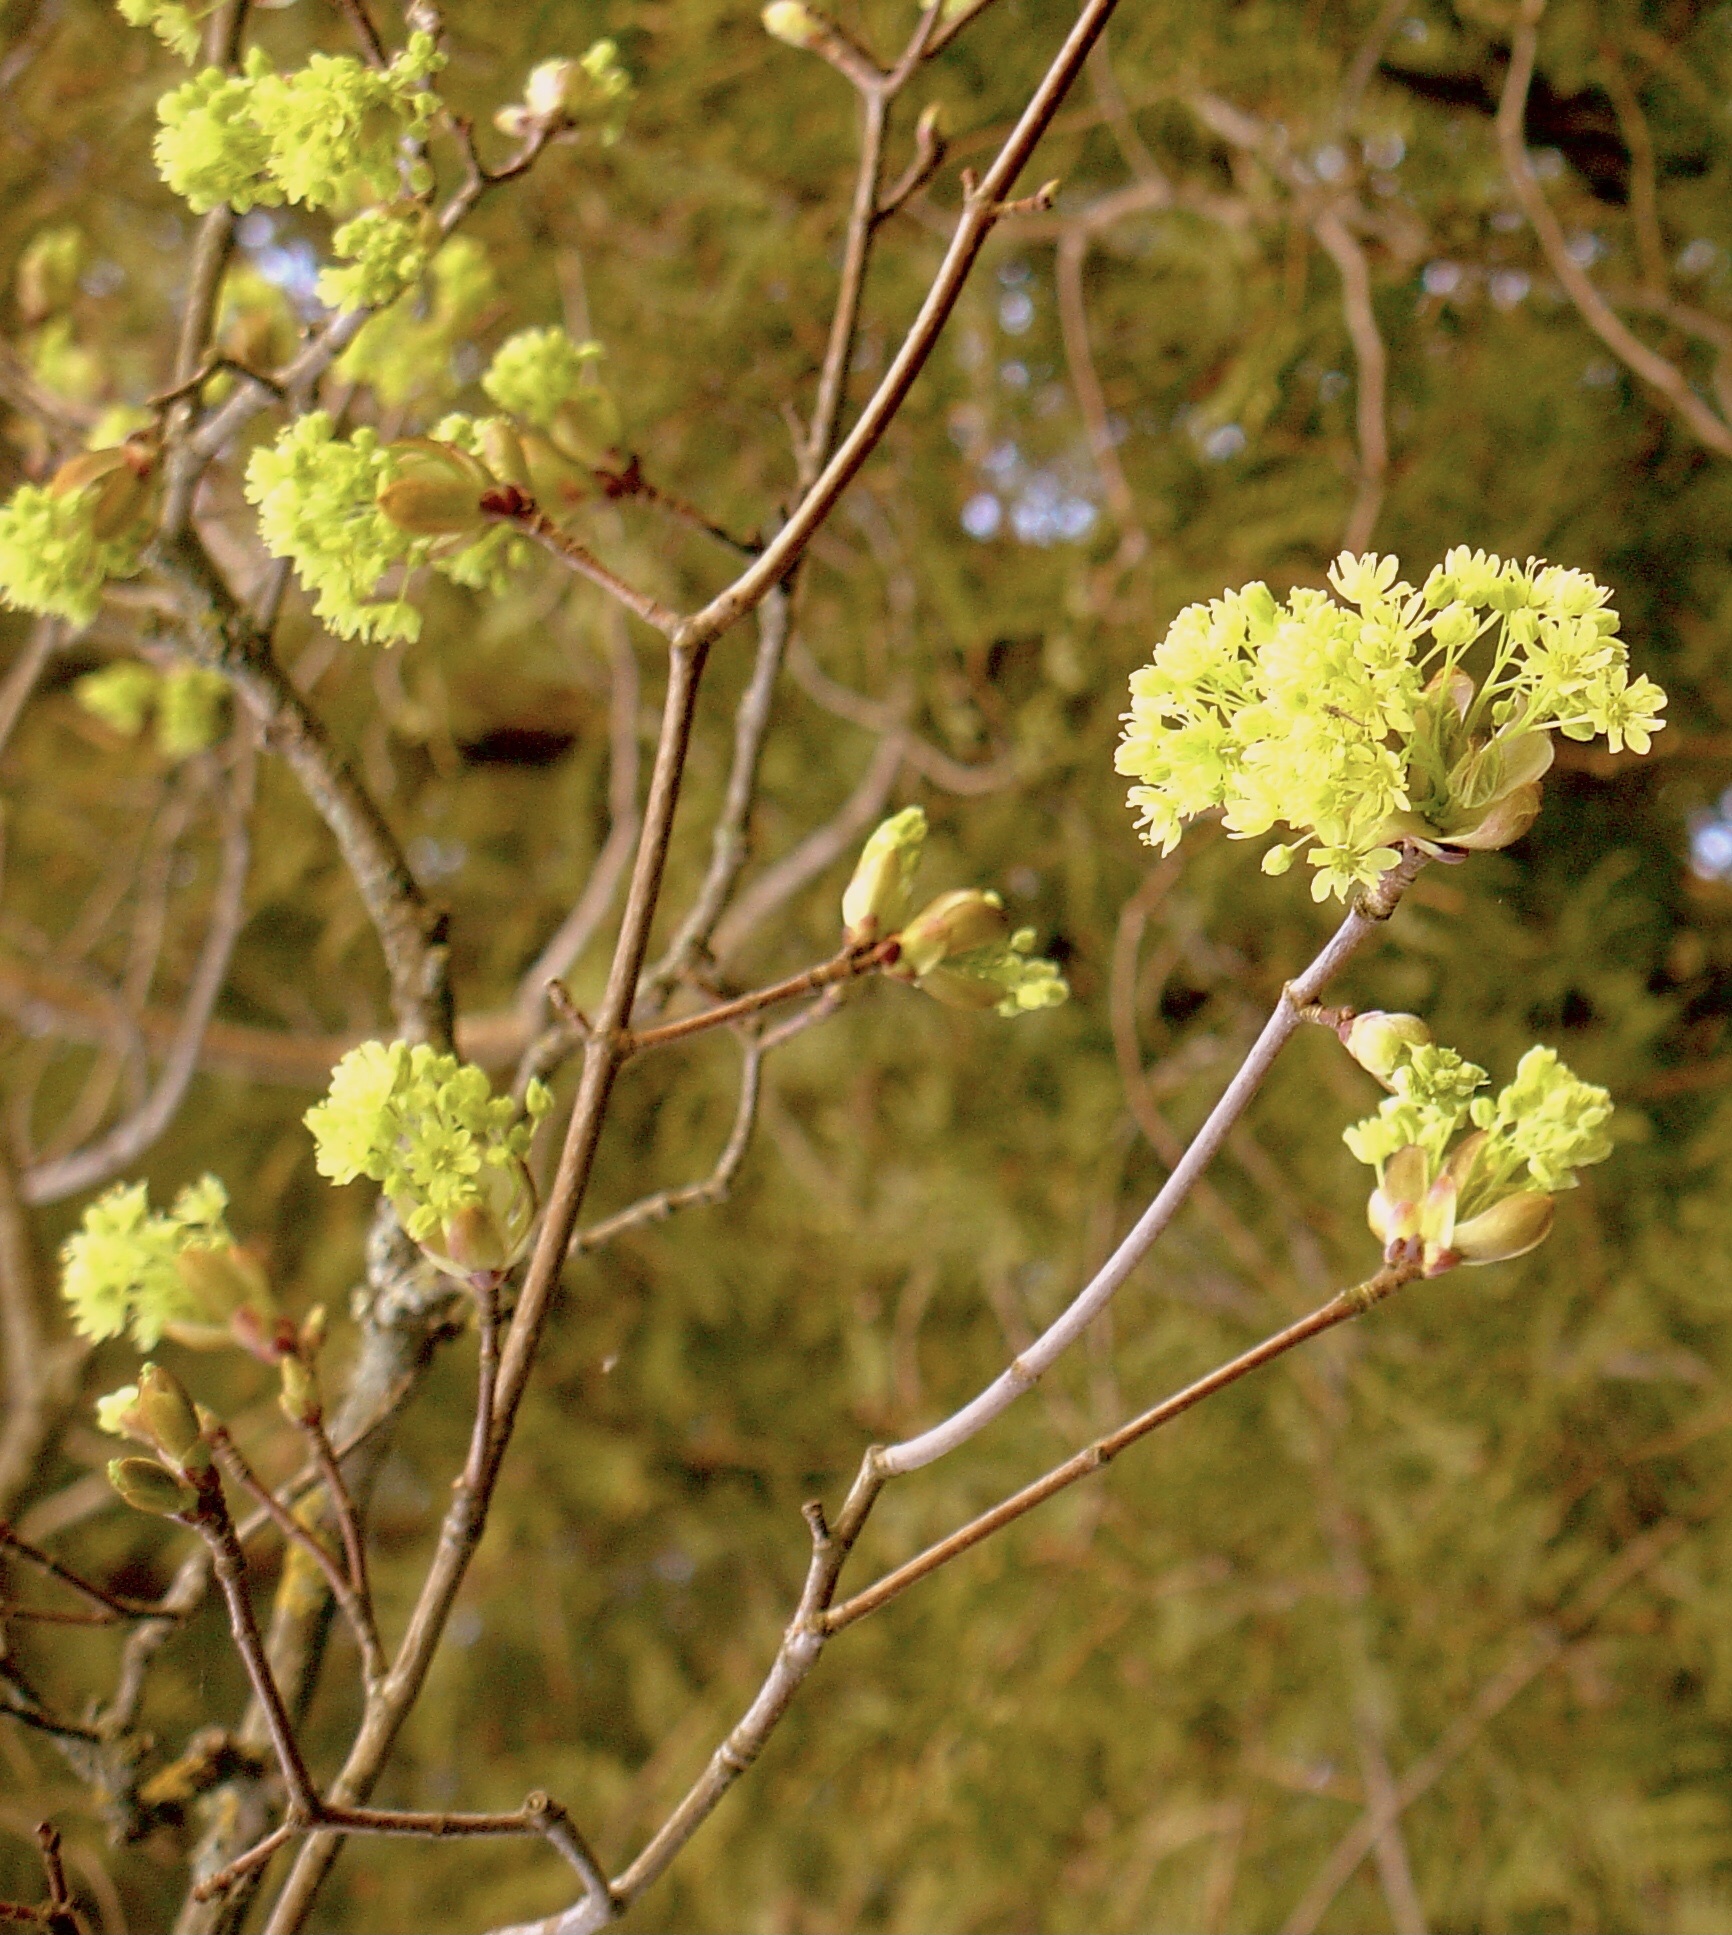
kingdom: Plantae
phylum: Tracheophyta
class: Magnoliopsida
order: Sapindales
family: Sapindaceae
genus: Acer
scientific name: Acer platanoides
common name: Norway maple
